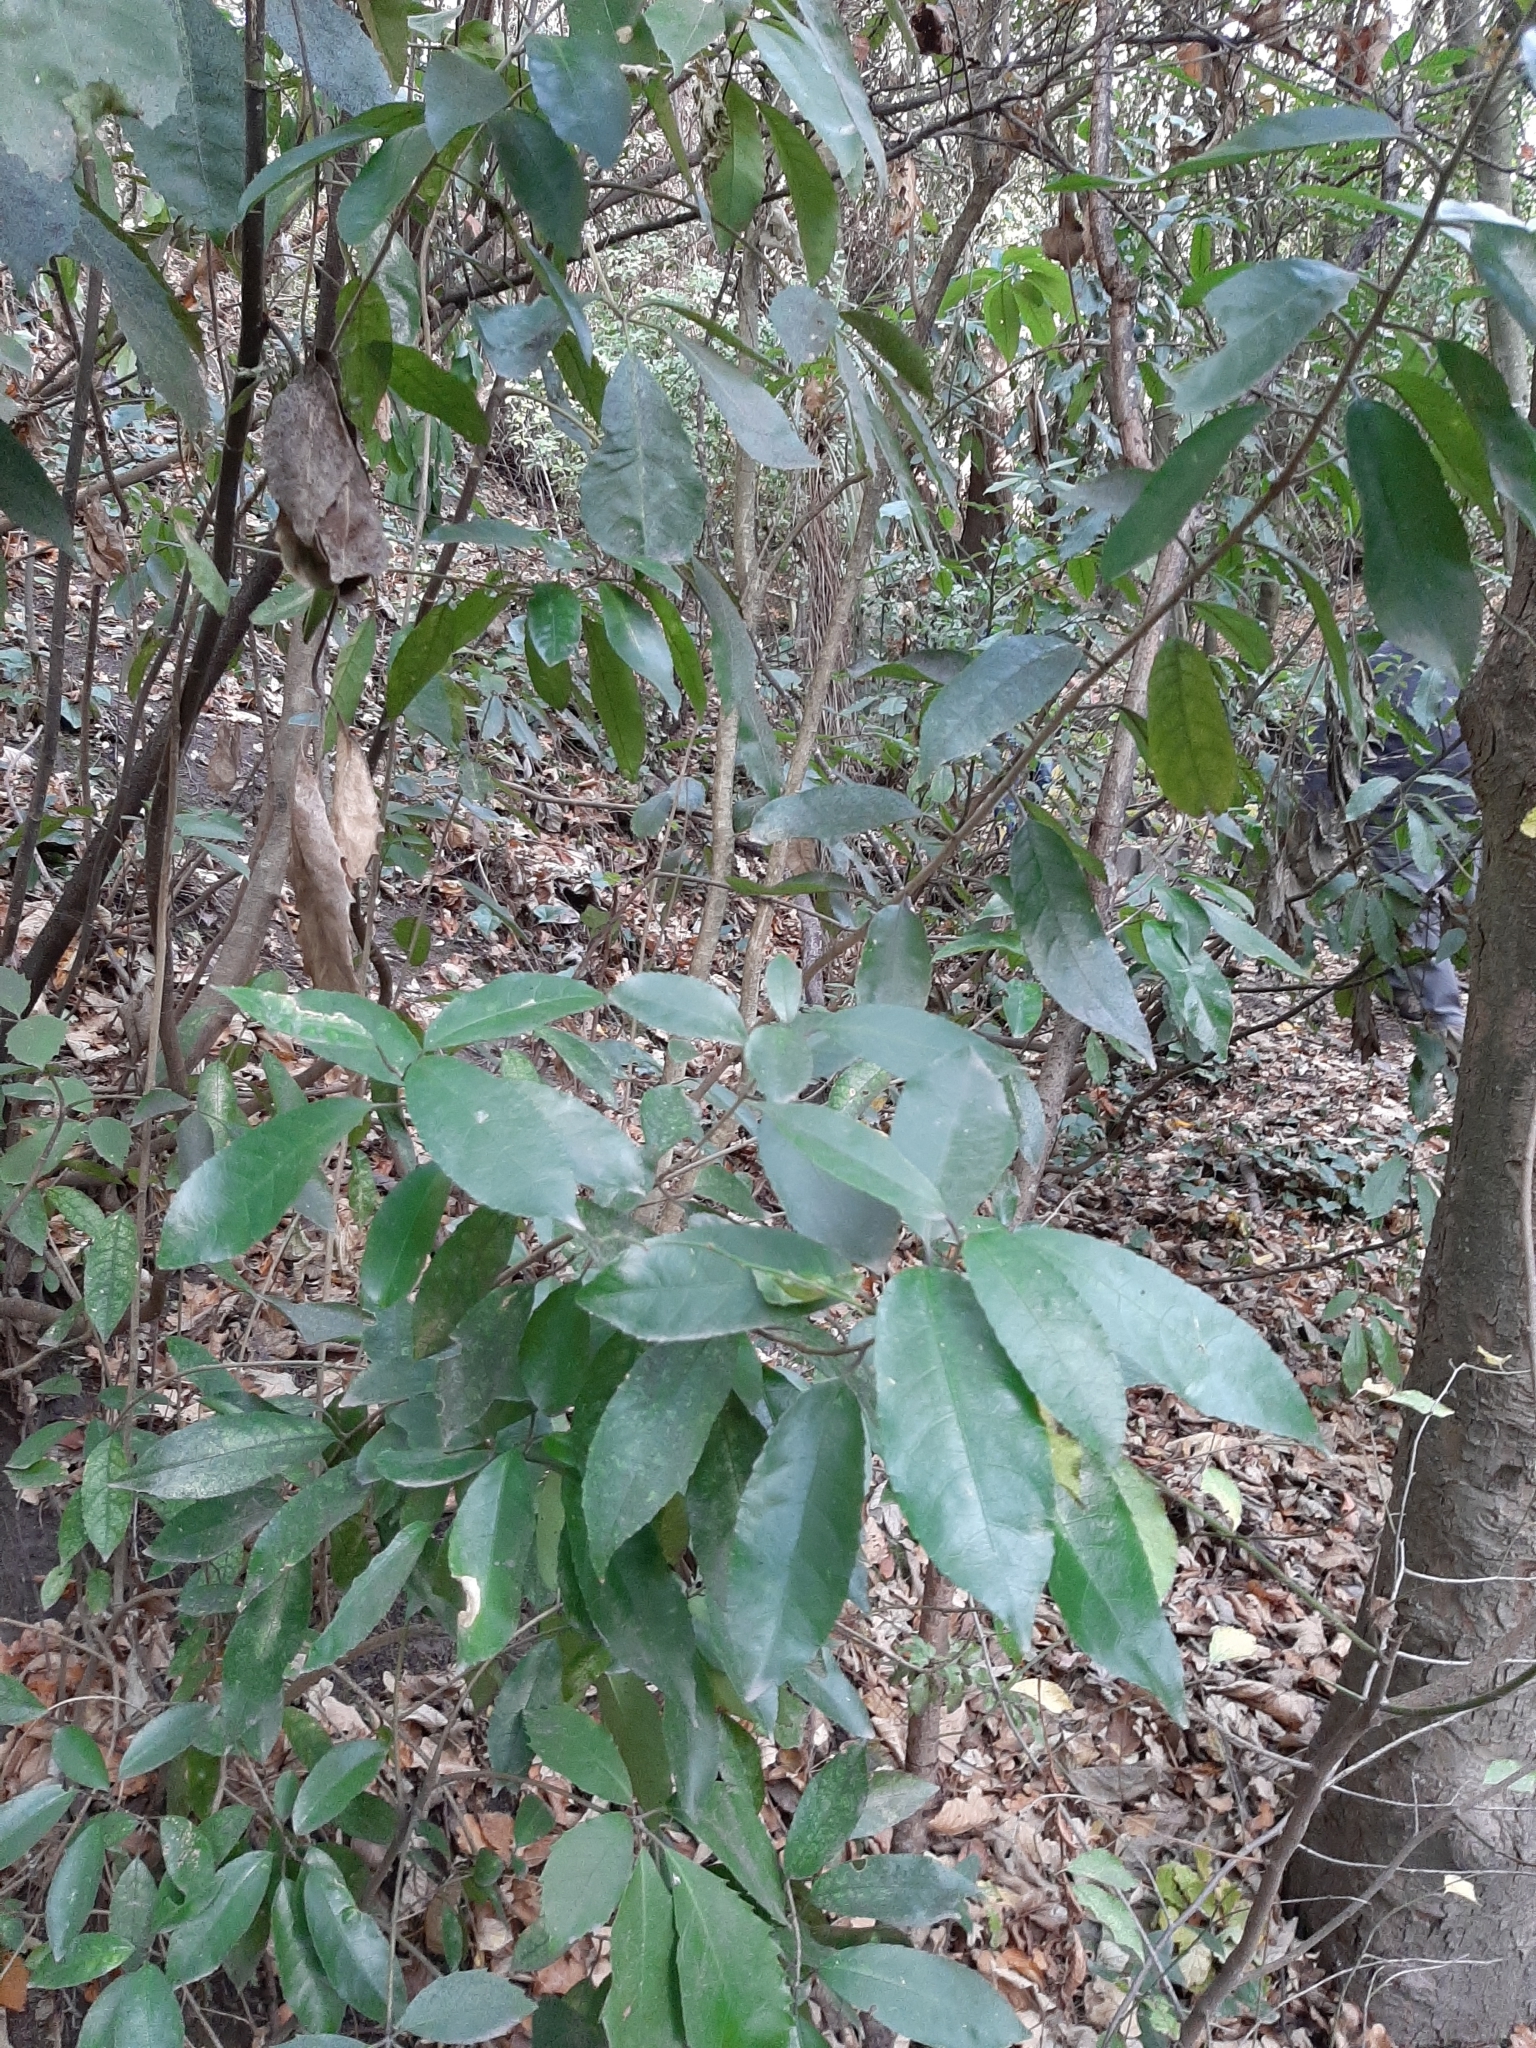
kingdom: Plantae
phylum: Tracheophyta
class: Magnoliopsida
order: Malpighiales
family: Violaceae
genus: Melicytus
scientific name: Melicytus ramiflorus
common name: Mahoe
